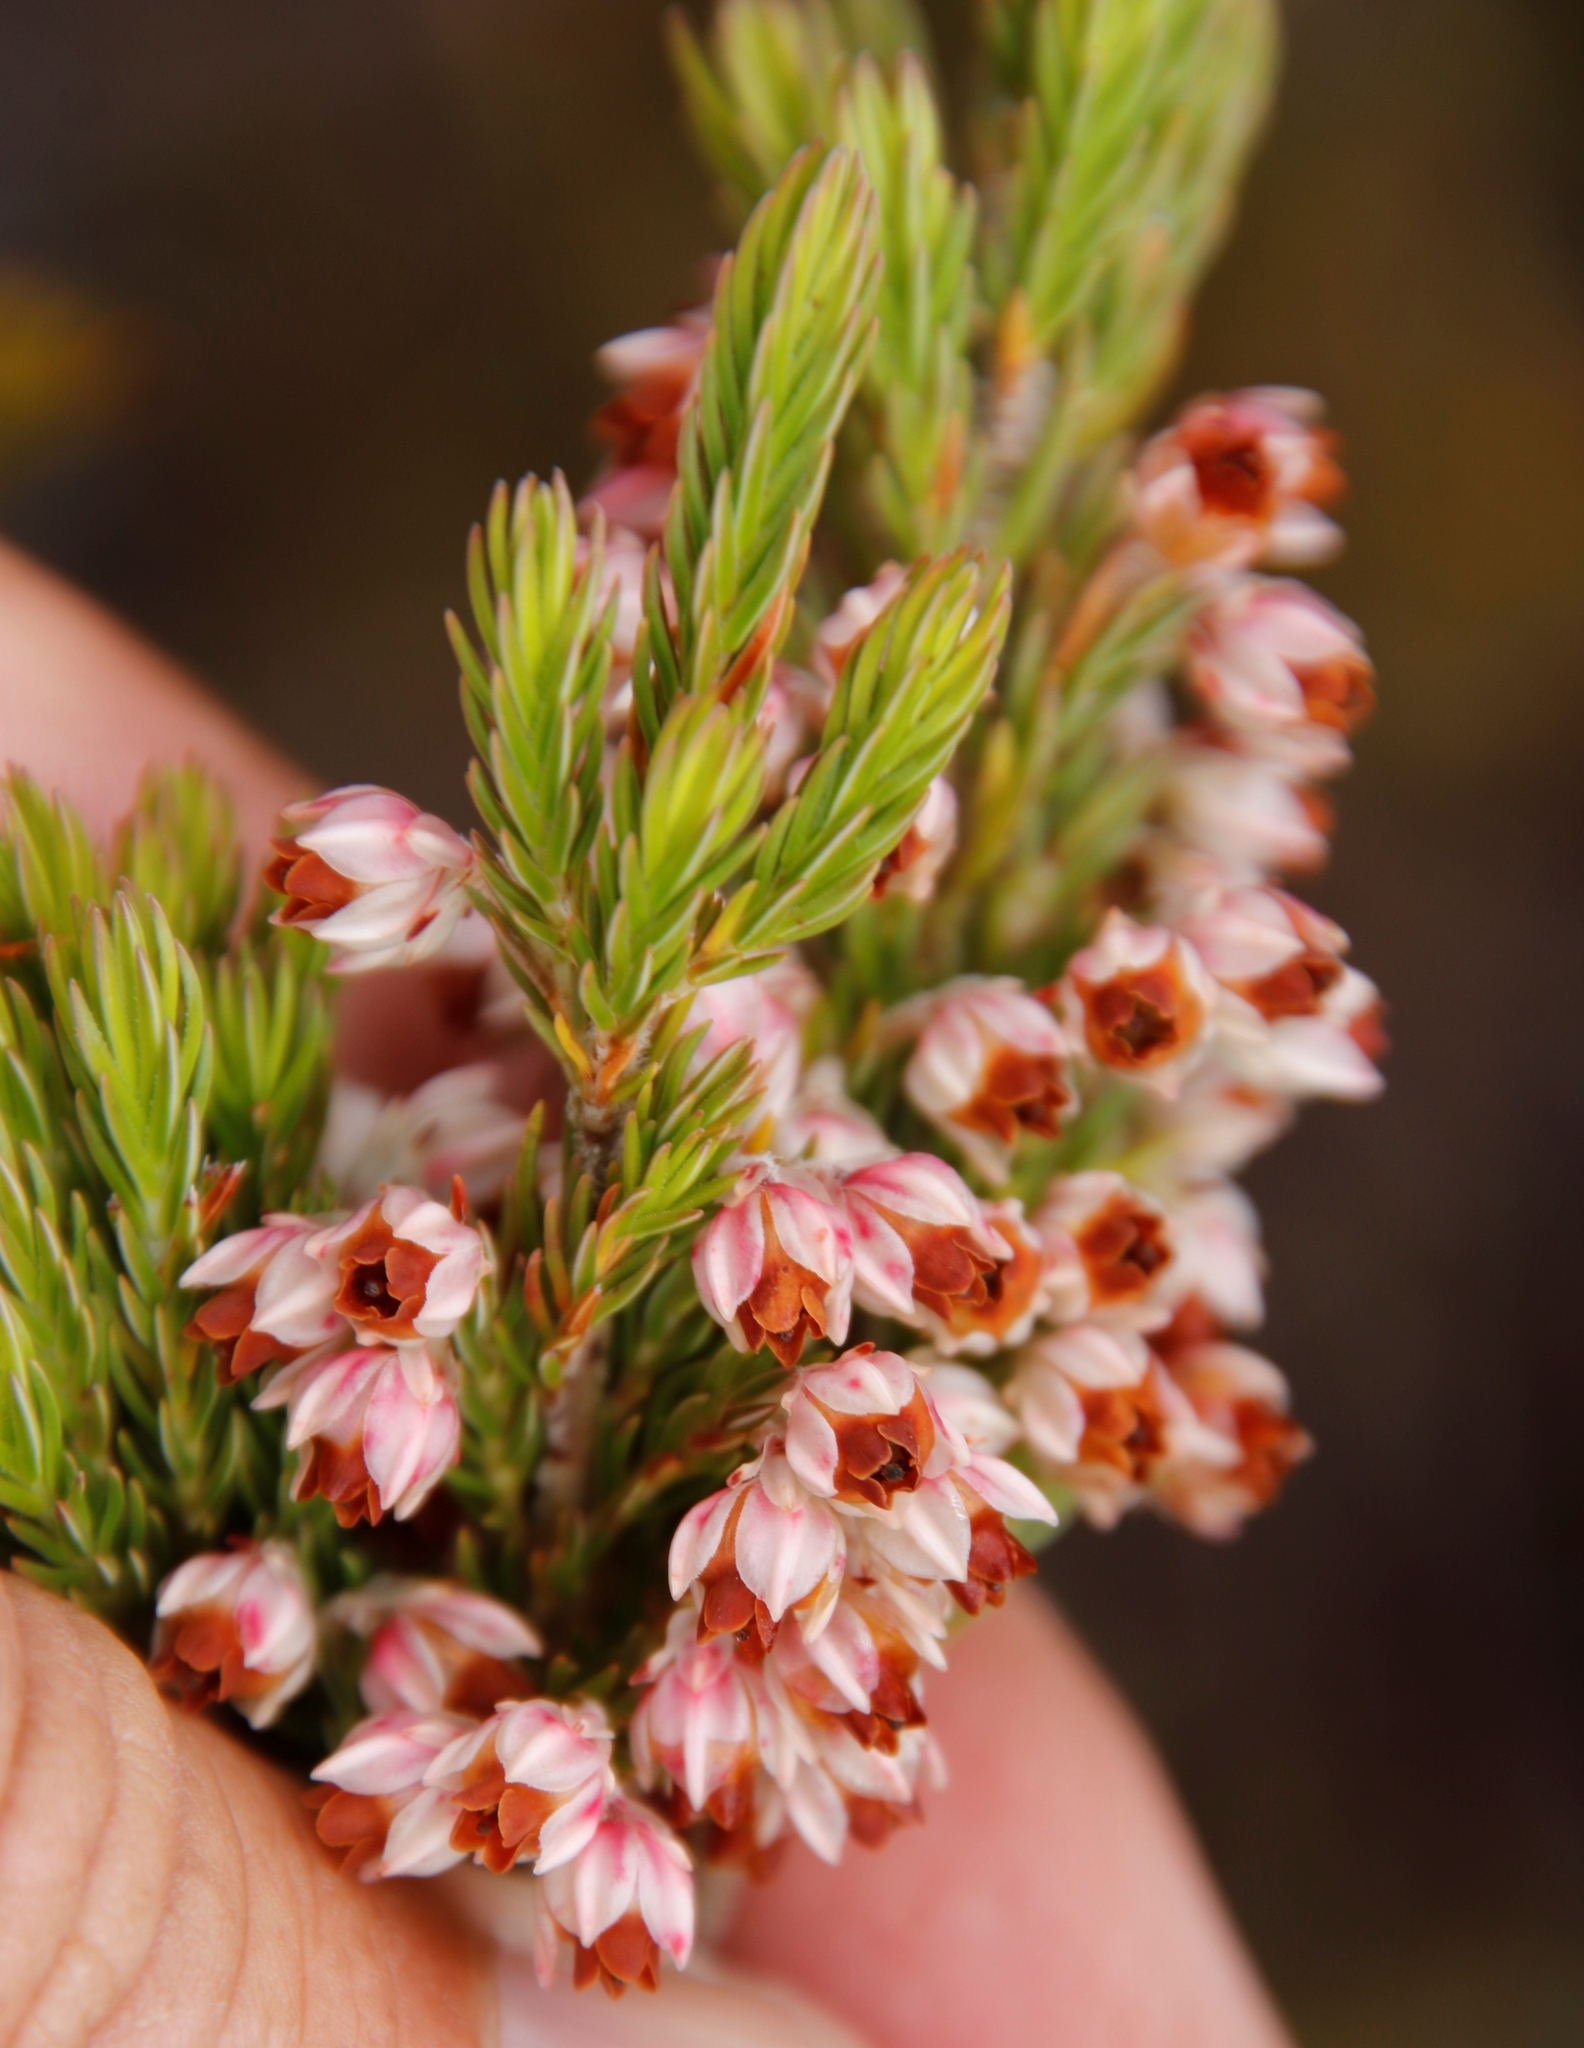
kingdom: Plantae
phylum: Tracheophyta
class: Magnoliopsida
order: Ericales
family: Ericaceae
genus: Erica
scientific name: Erica triflora
